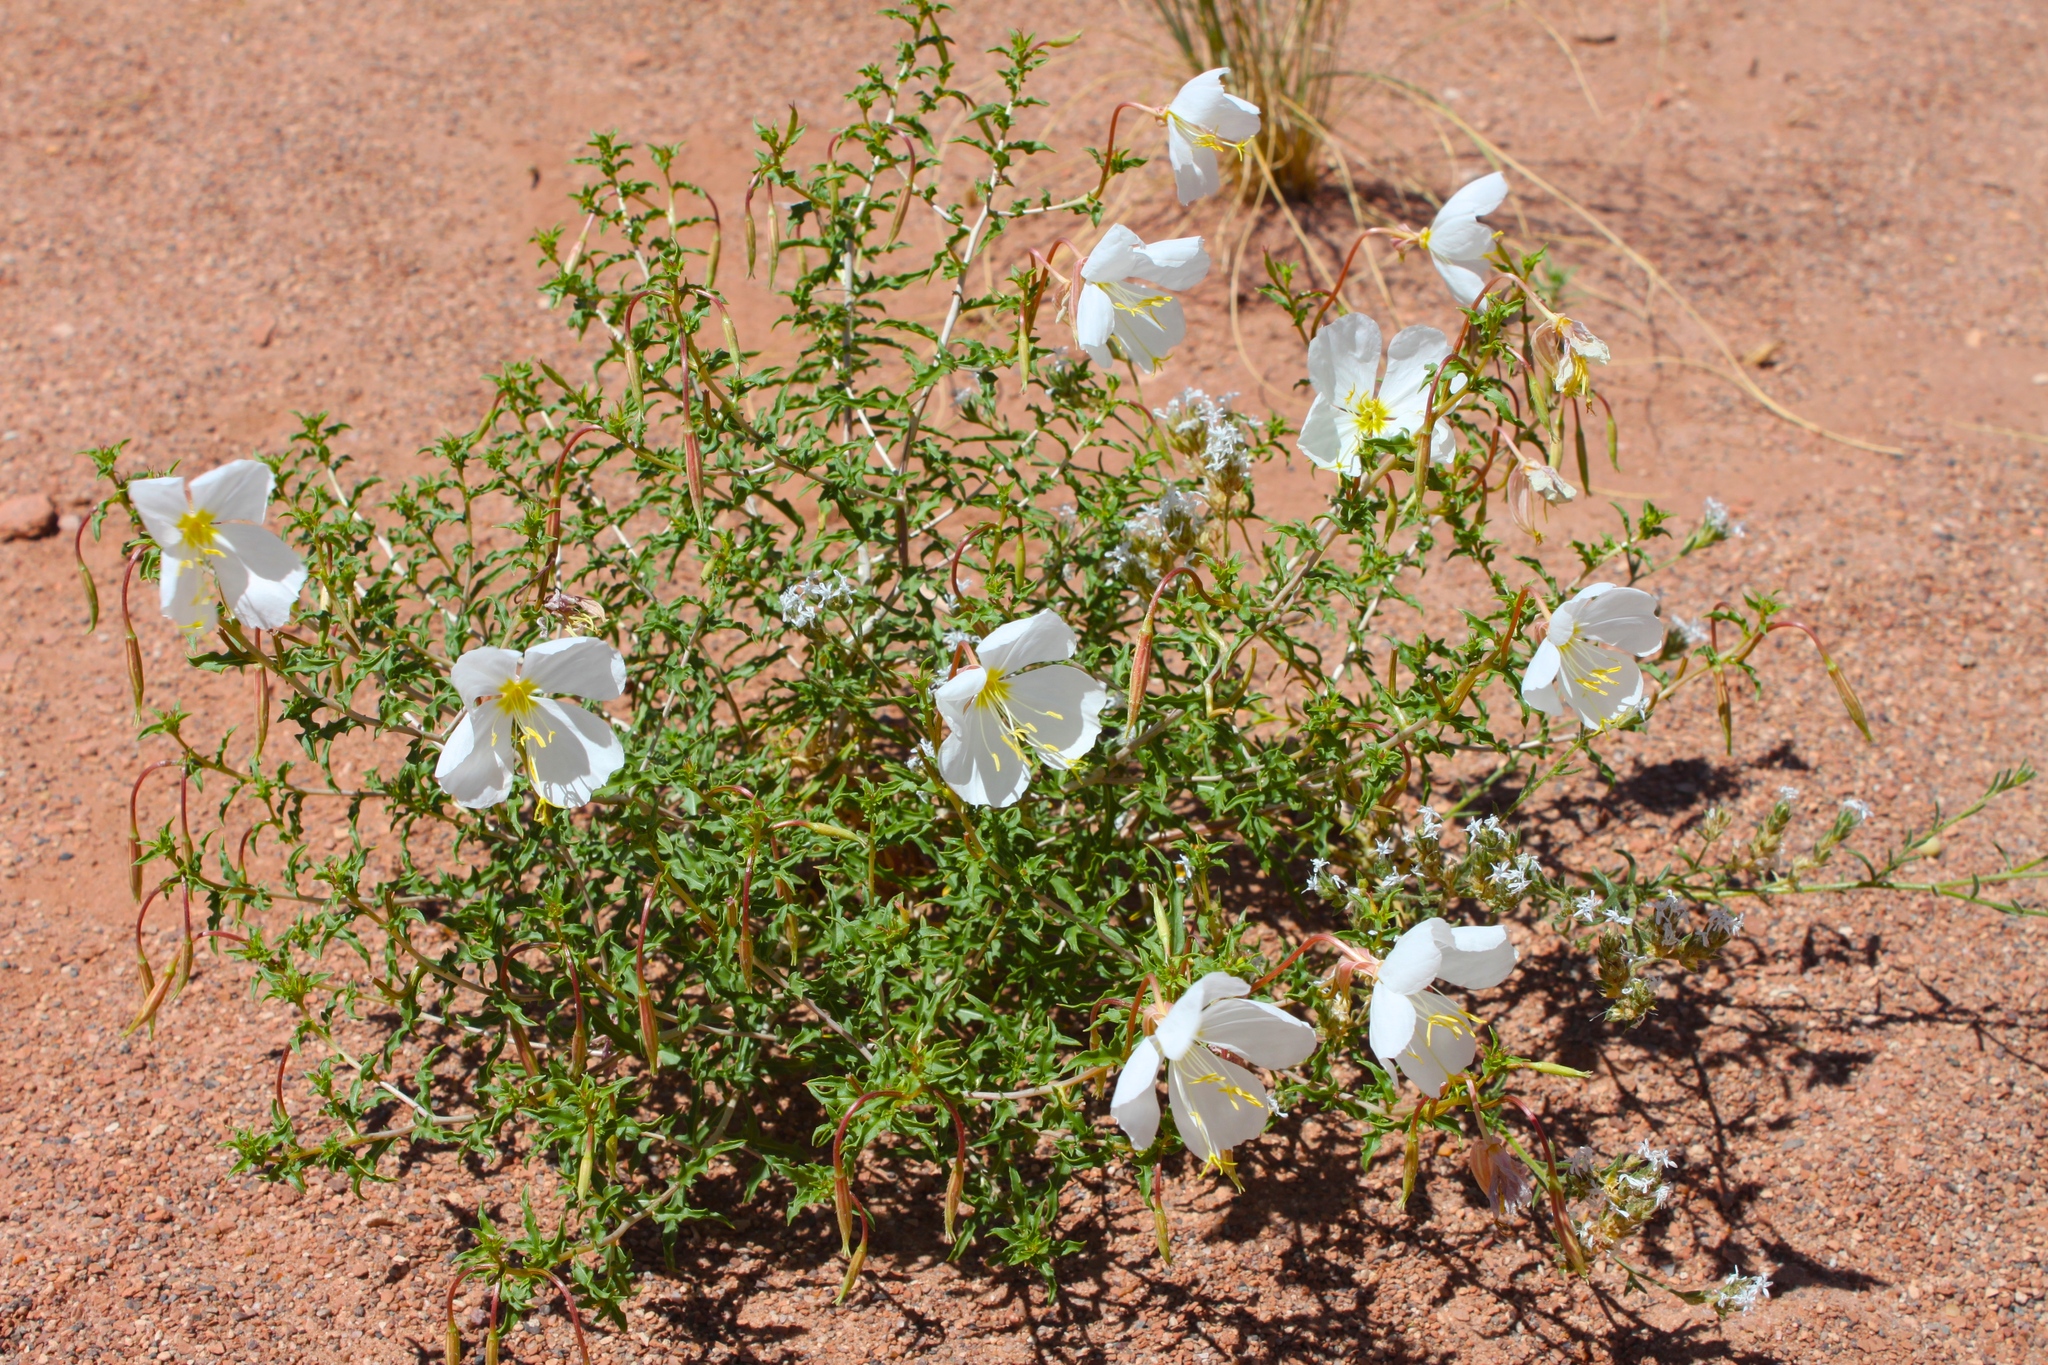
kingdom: Plantae
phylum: Tracheophyta
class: Magnoliopsida
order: Myrtales
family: Onagraceae
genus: Oenothera
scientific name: Oenothera pallida
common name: Pale evening-primrose
